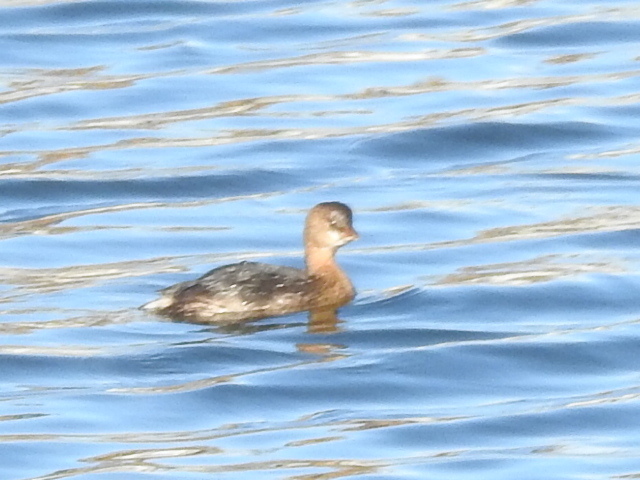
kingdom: Animalia
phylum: Chordata
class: Aves
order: Podicipediformes
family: Podicipedidae
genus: Podilymbus
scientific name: Podilymbus podiceps
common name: Pied-billed grebe
